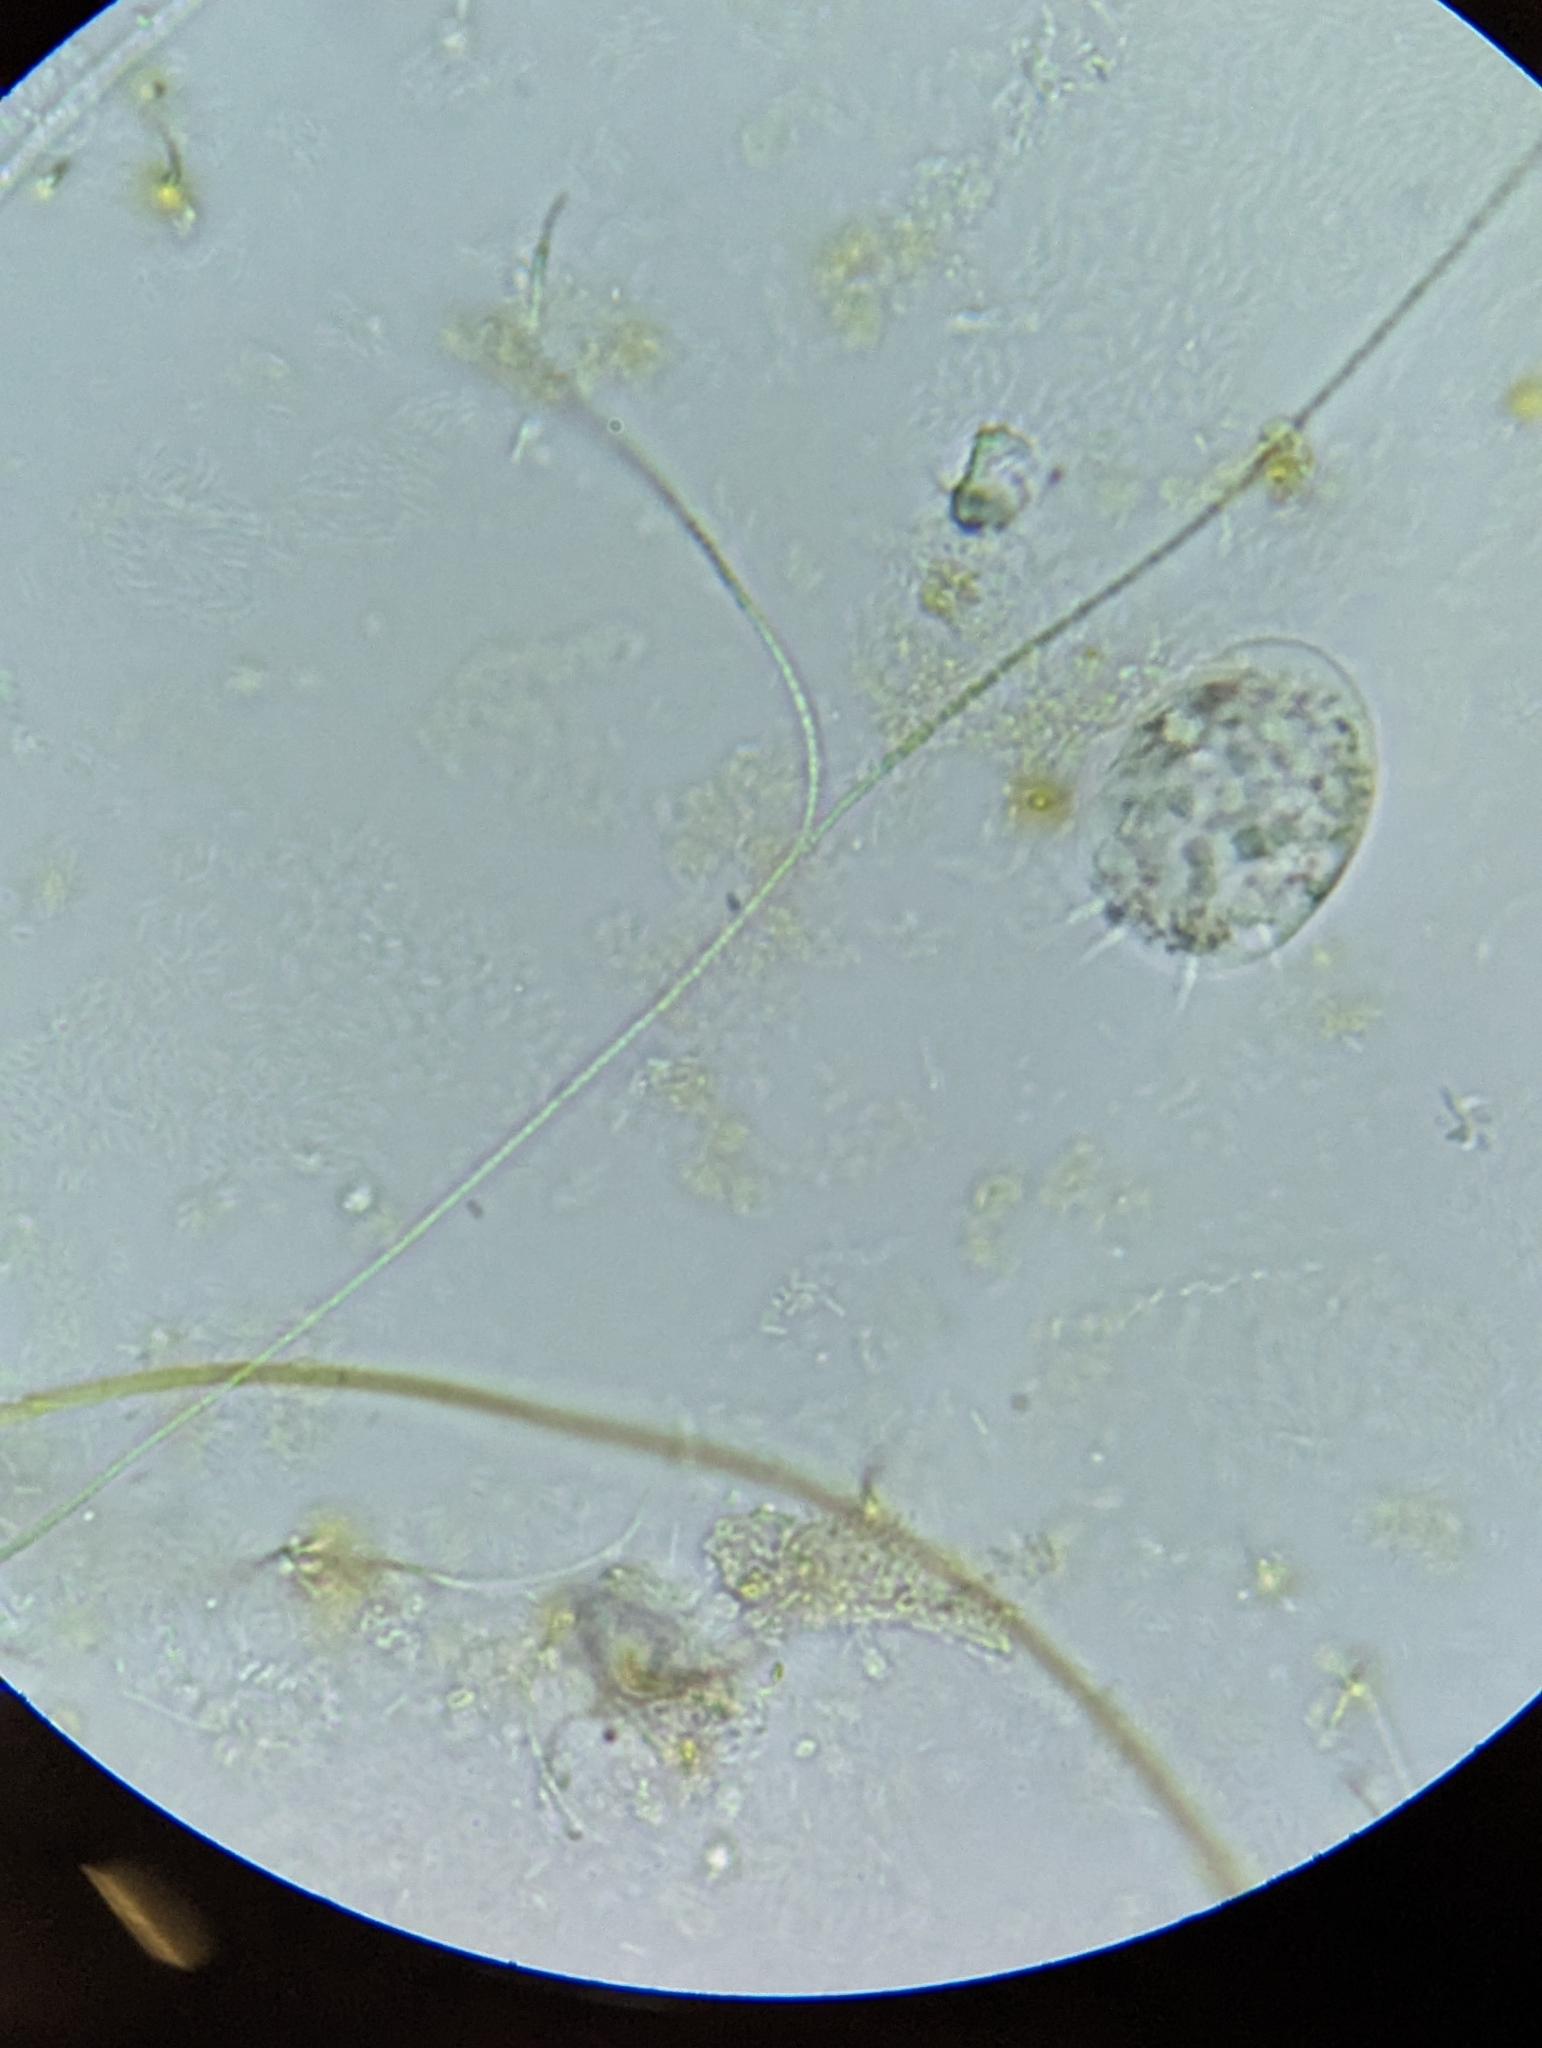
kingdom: Chromista
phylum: Ciliophora
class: Hypotrichea
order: Euplotida
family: Aspidiscidae
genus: Aspidisca
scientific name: Aspidisca
